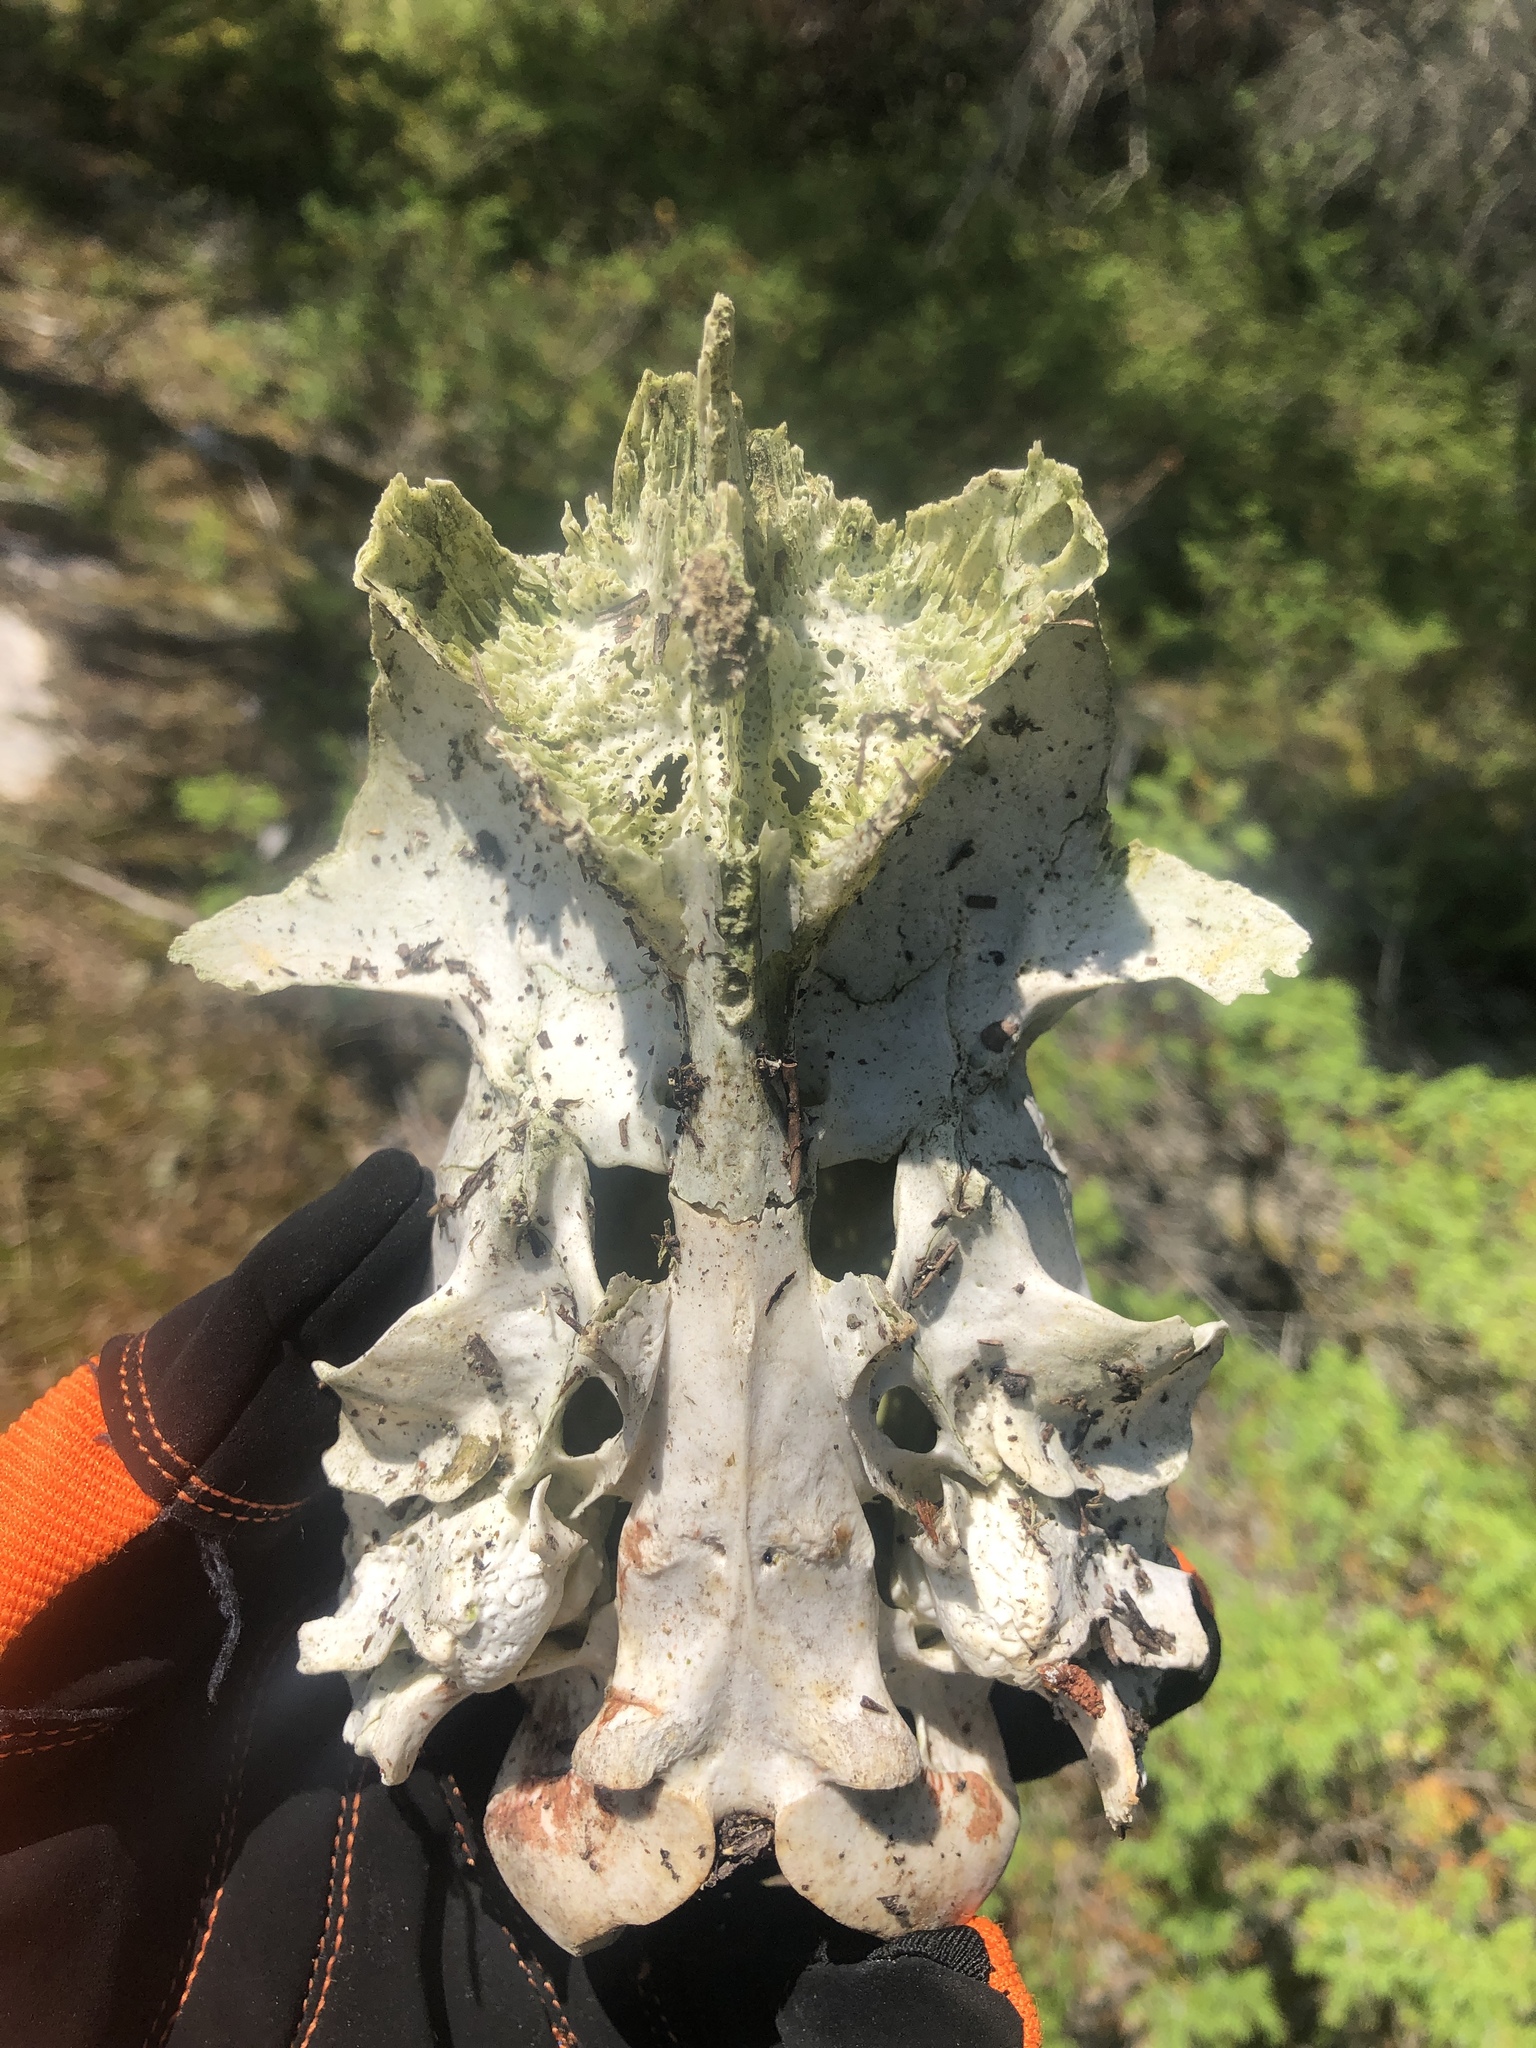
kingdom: Animalia
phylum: Chordata
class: Mammalia
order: Artiodactyla
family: Cervidae
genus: Odocoileus
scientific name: Odocoileus virginianus
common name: White-tailed deer
